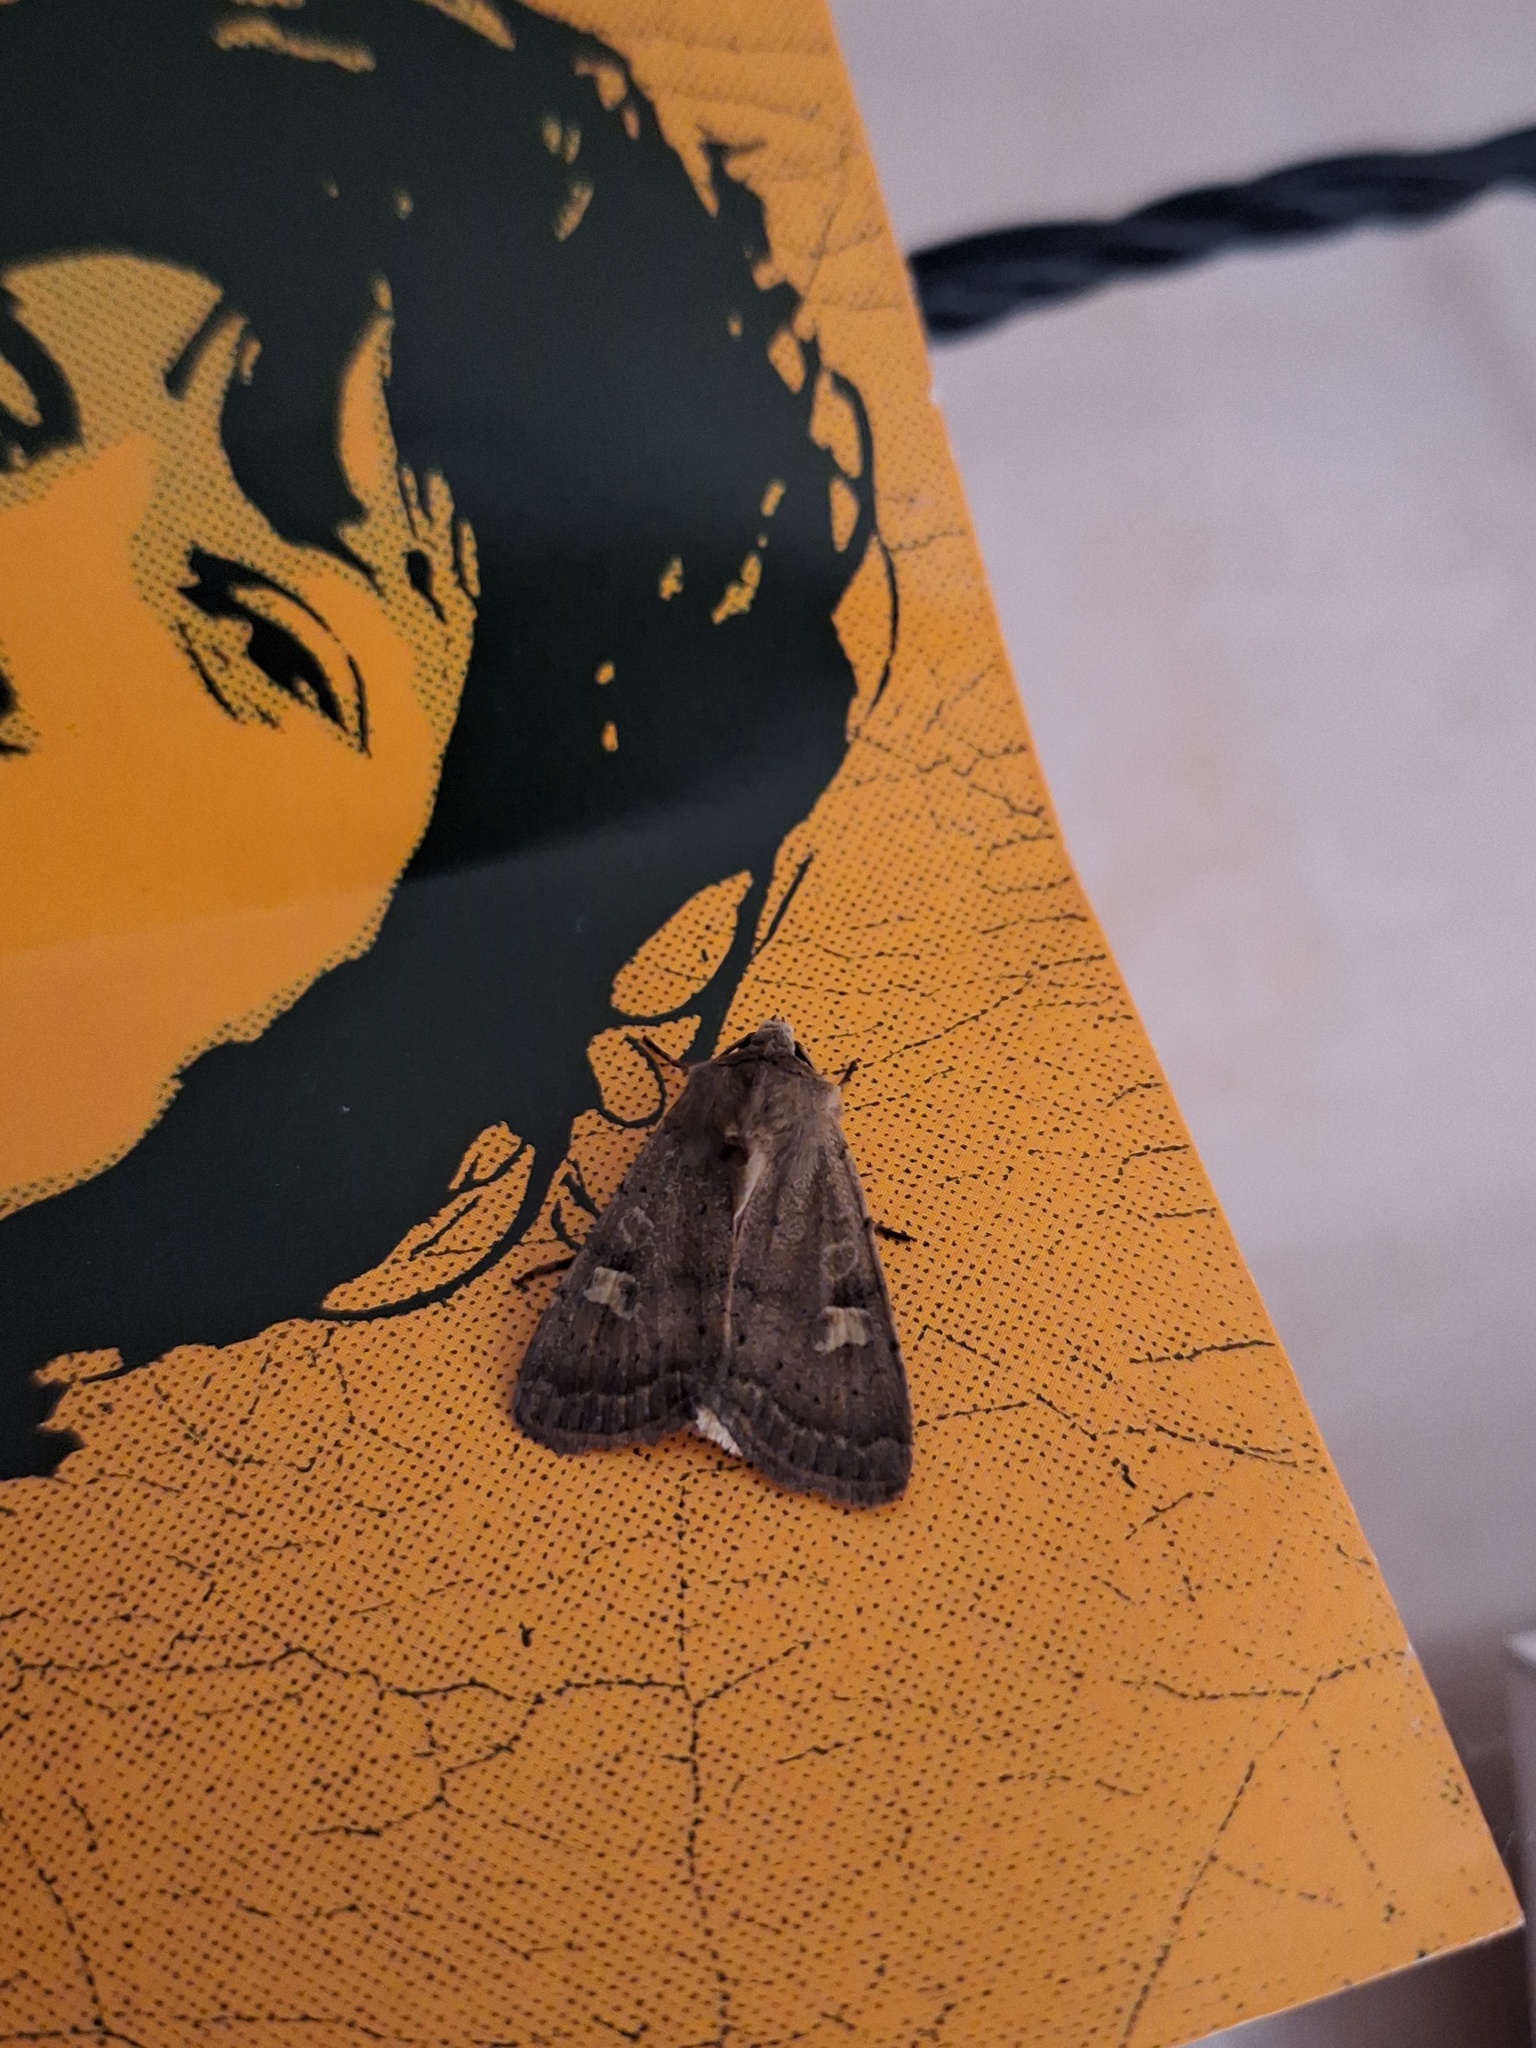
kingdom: Animalia
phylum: Arthropoda
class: Insecta
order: Lepidoptera
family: Noctuidae
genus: Xestia
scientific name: Xestia xanthographa
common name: Square-spot rustic
